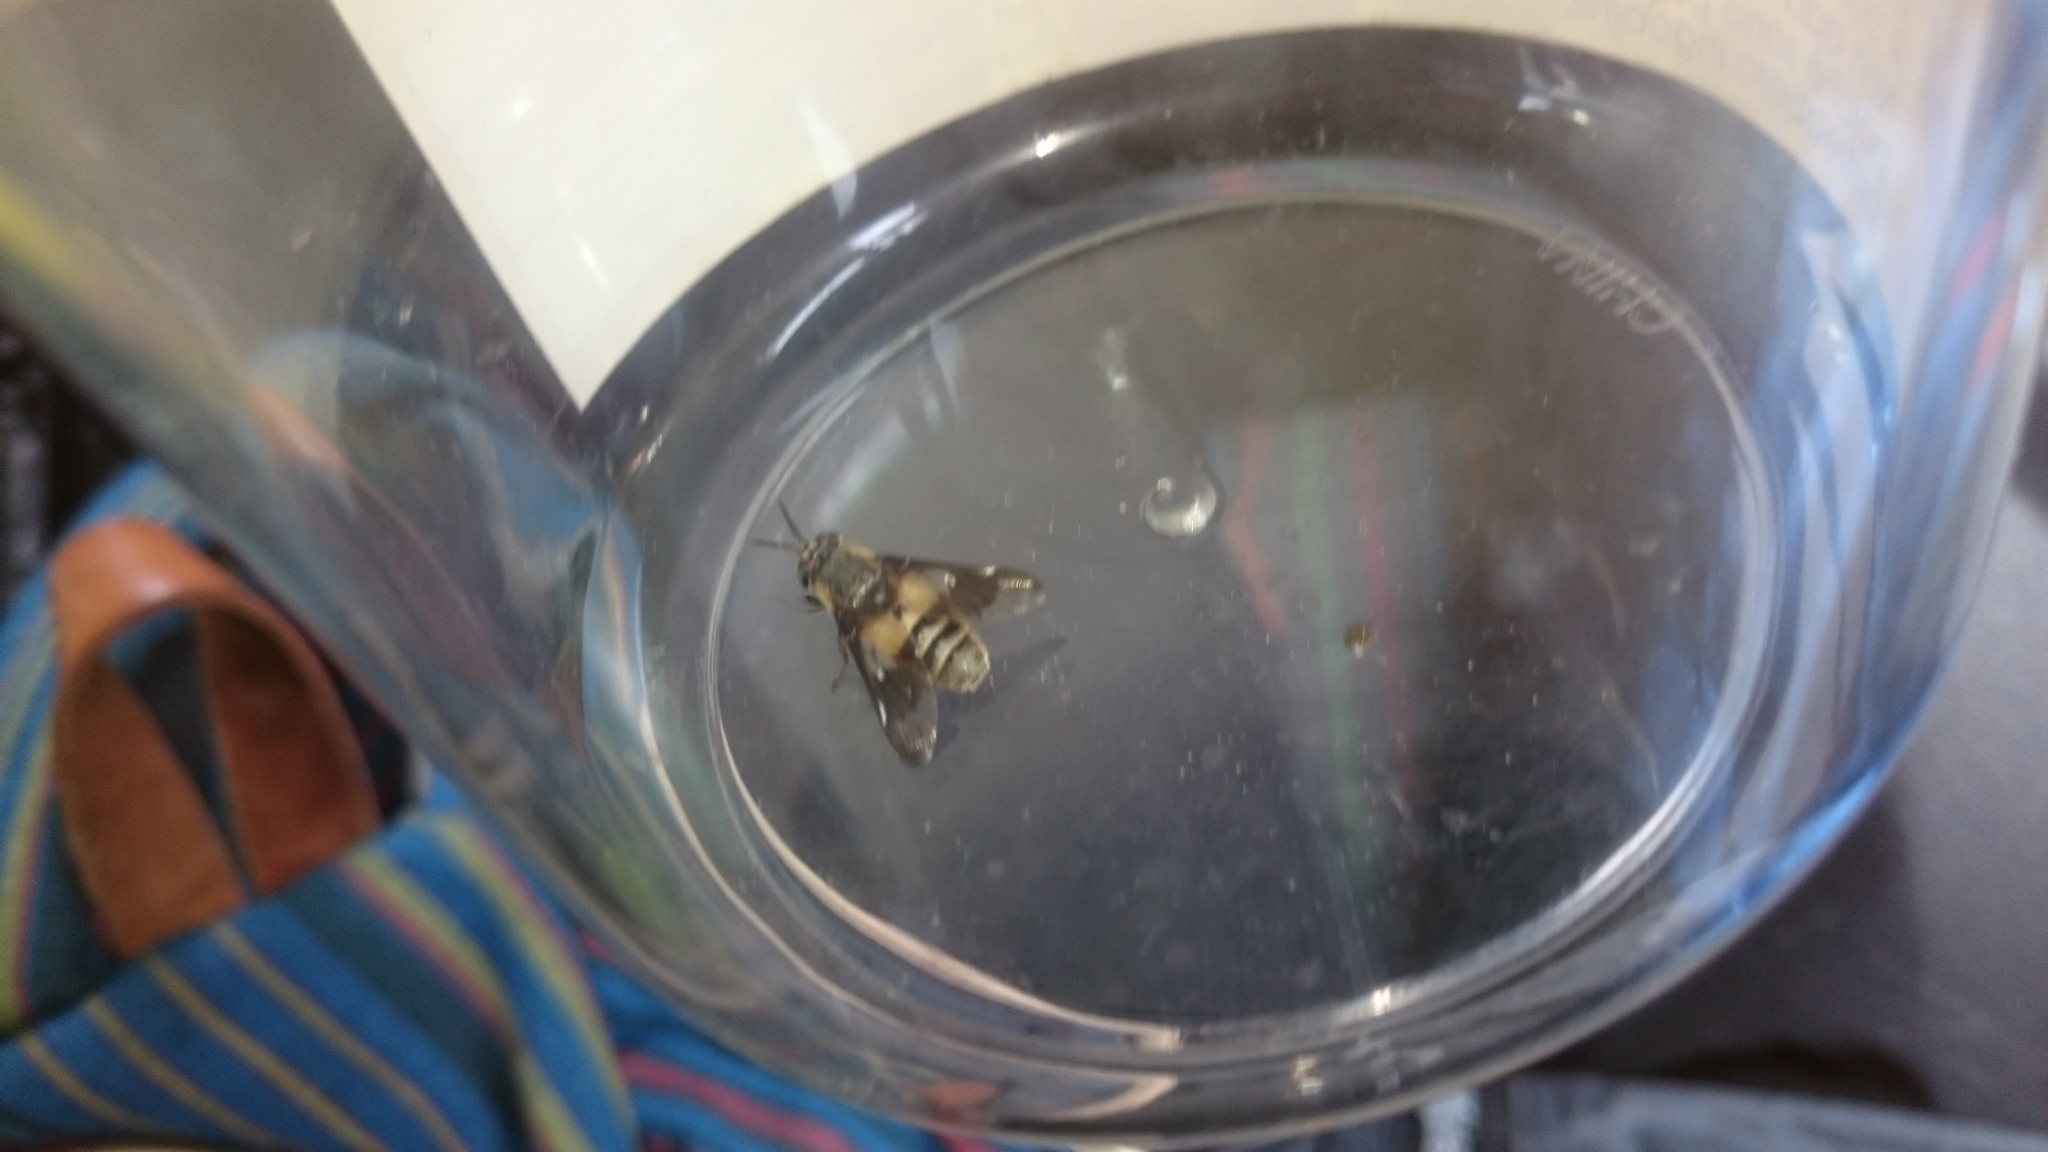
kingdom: Animalia
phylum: Arthropoda
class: Insecta
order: Diptera
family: Tabanidae
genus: Chrysops
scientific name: Chrysops viduatus
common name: Square-spot deerfly
